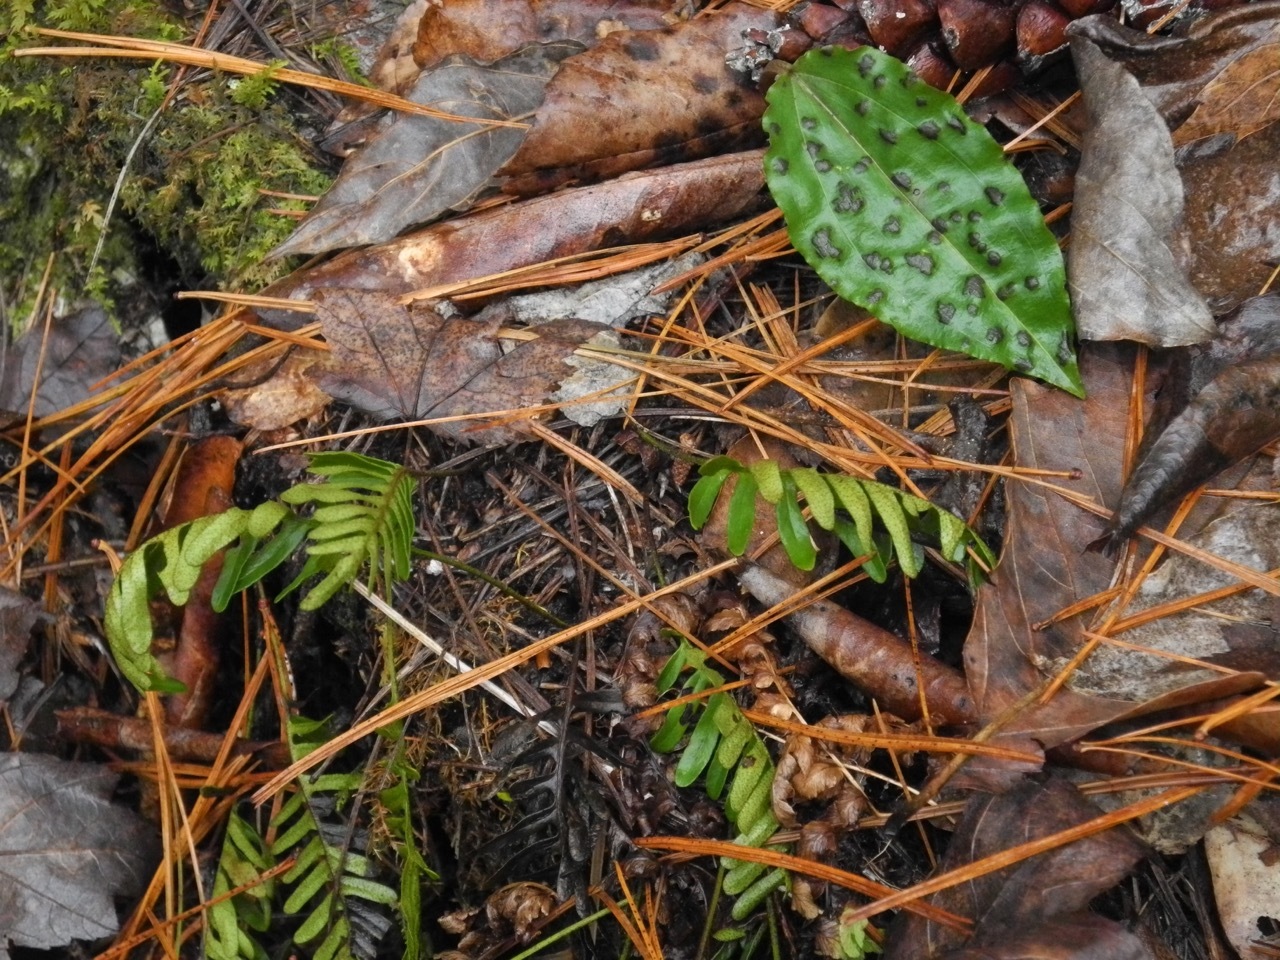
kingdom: Plantae
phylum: Tracheophyta
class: Liliopsida
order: Asparagales
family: Orchidaceae
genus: Tipularia
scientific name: Tipularia discolor
